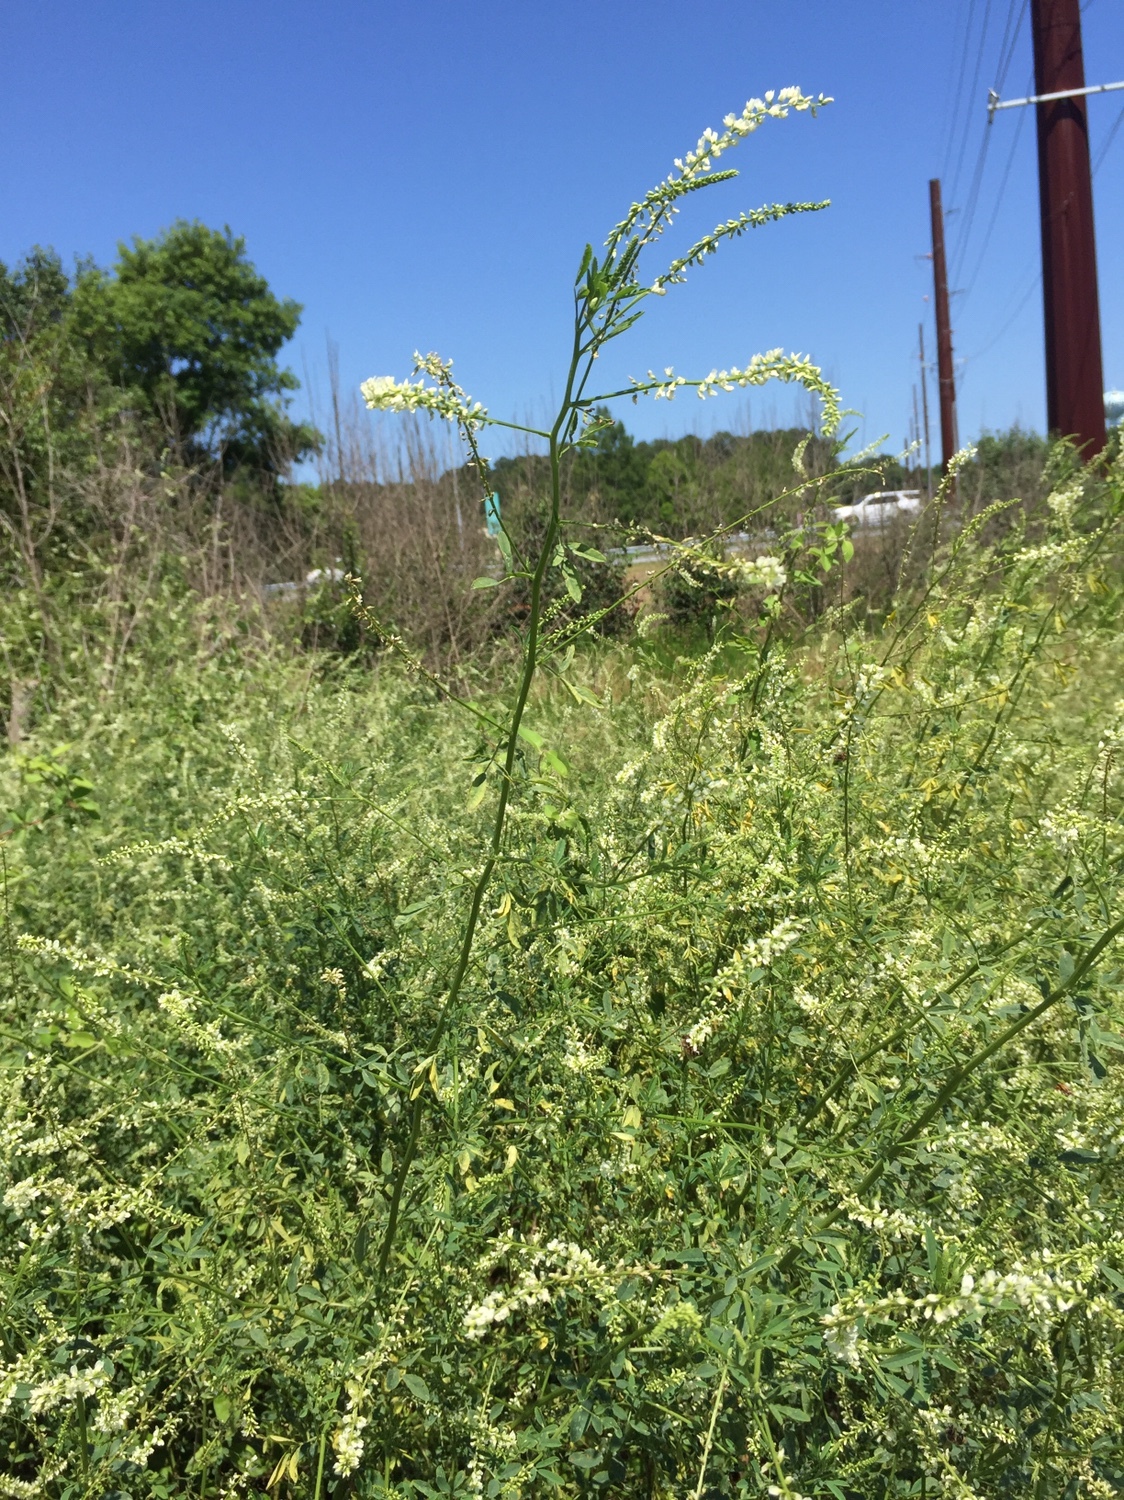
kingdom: Plantae
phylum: Tracheophyta
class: Magnoliopsida
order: Fabales
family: Fabaceae
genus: Melilotus
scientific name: Melilotus albus
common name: White melilot
